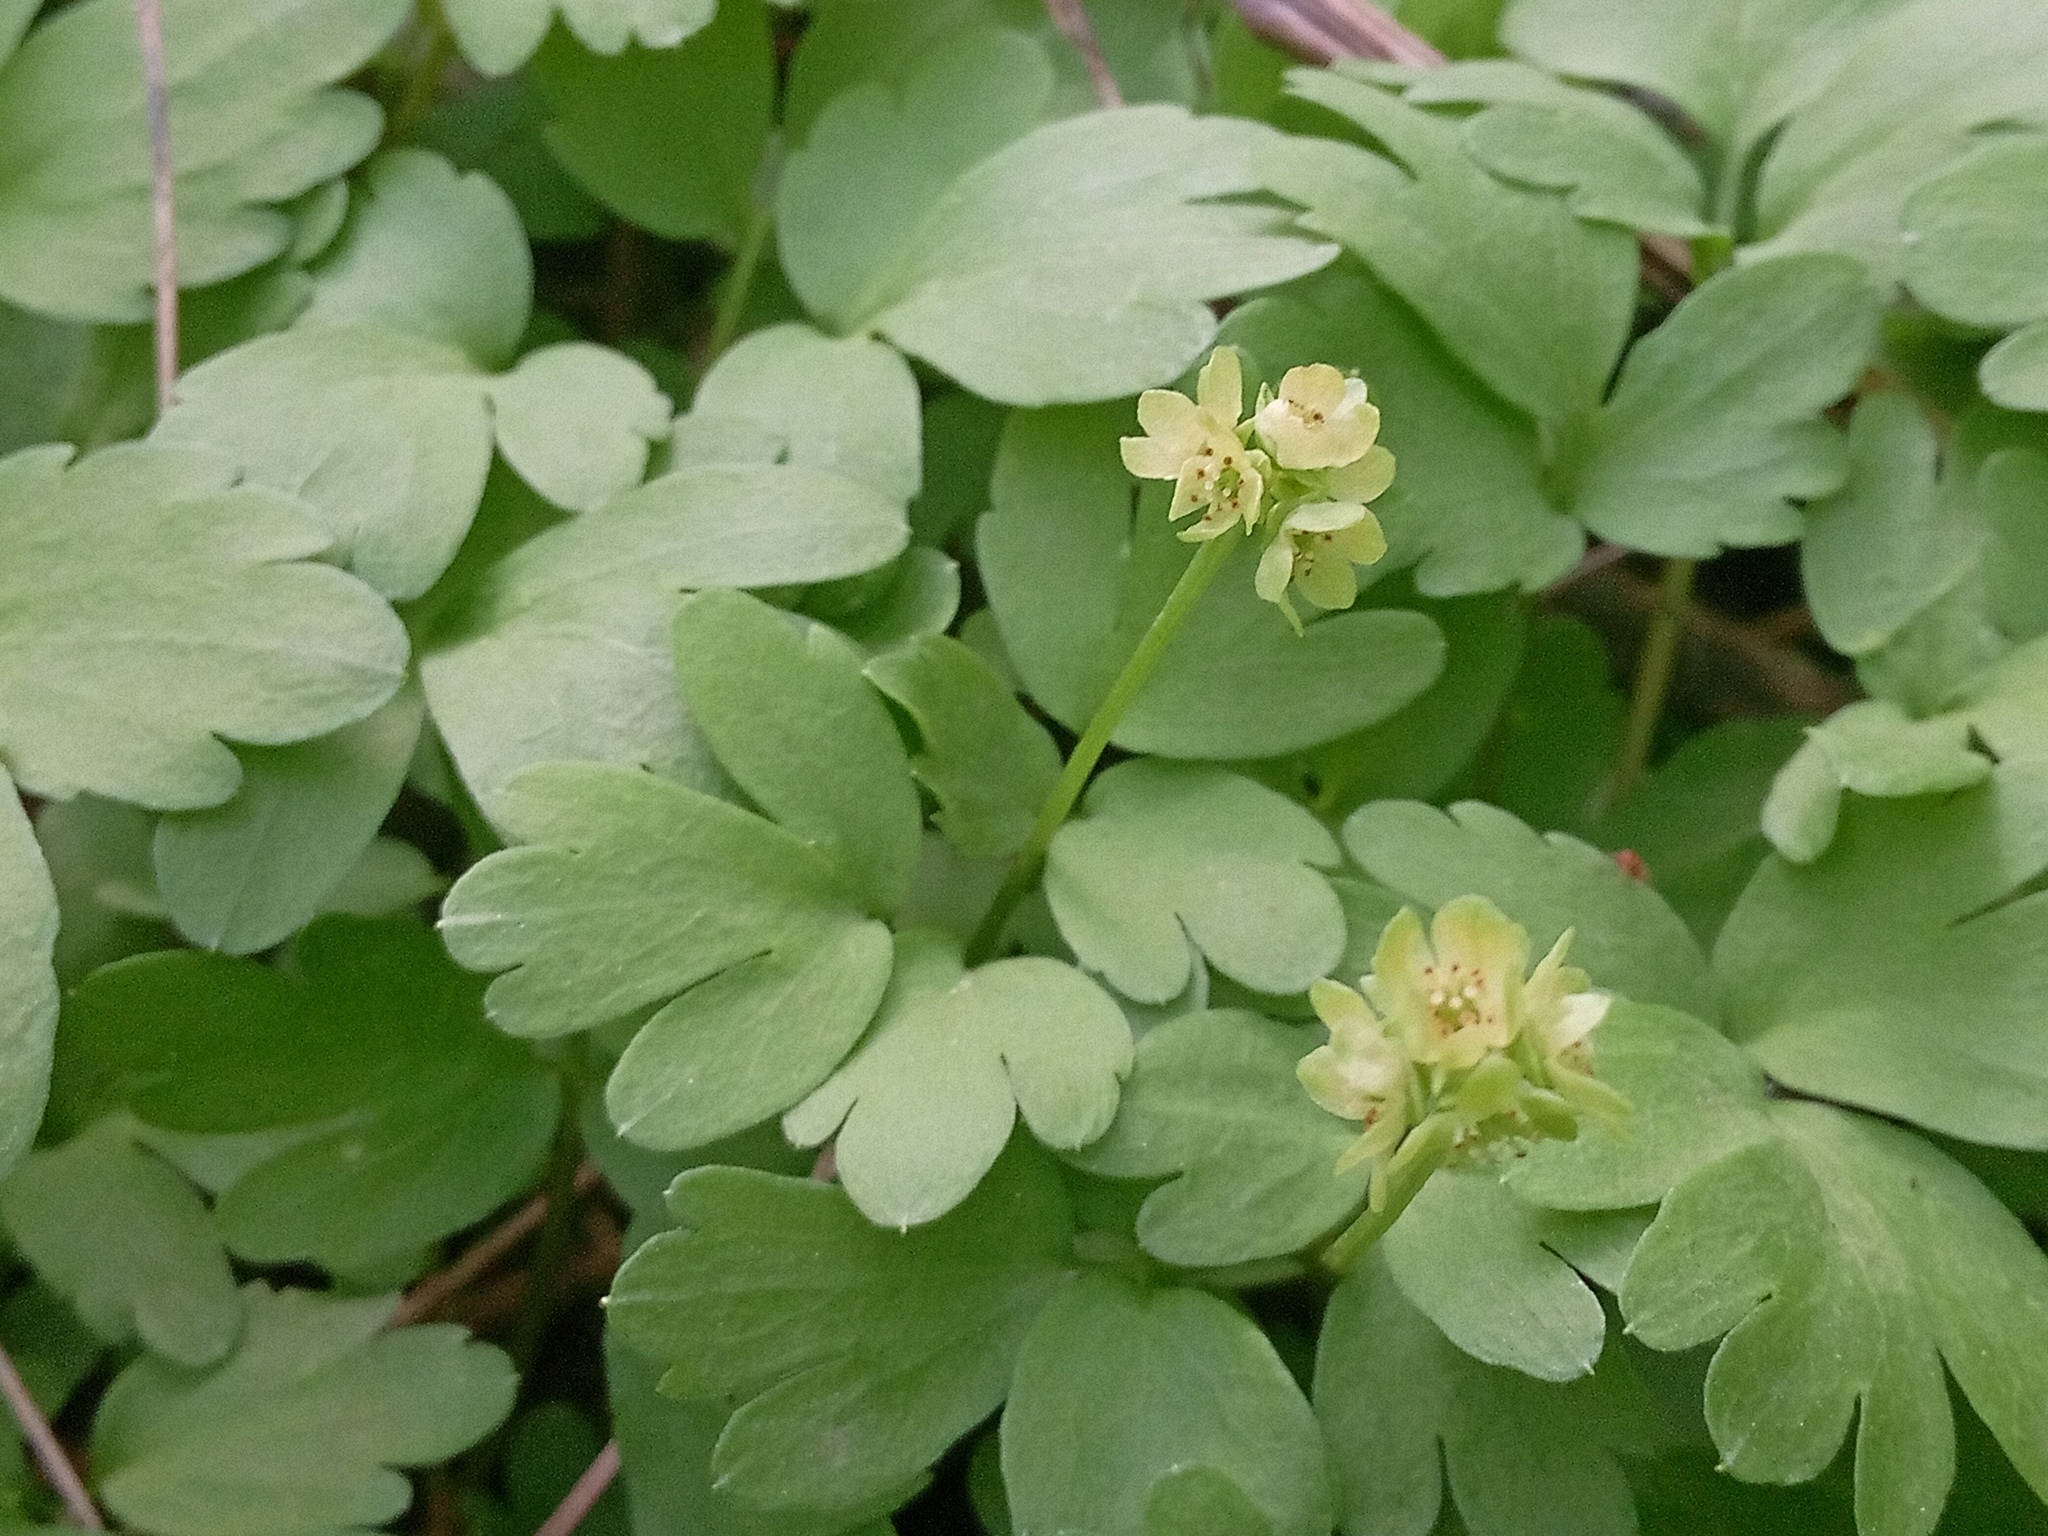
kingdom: Plantae
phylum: Tracheophyta
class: Magnoliopsida
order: Dipsacales
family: Viburnaceae
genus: Adoxa
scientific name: Adoxa moschatellina
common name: Moschatel
